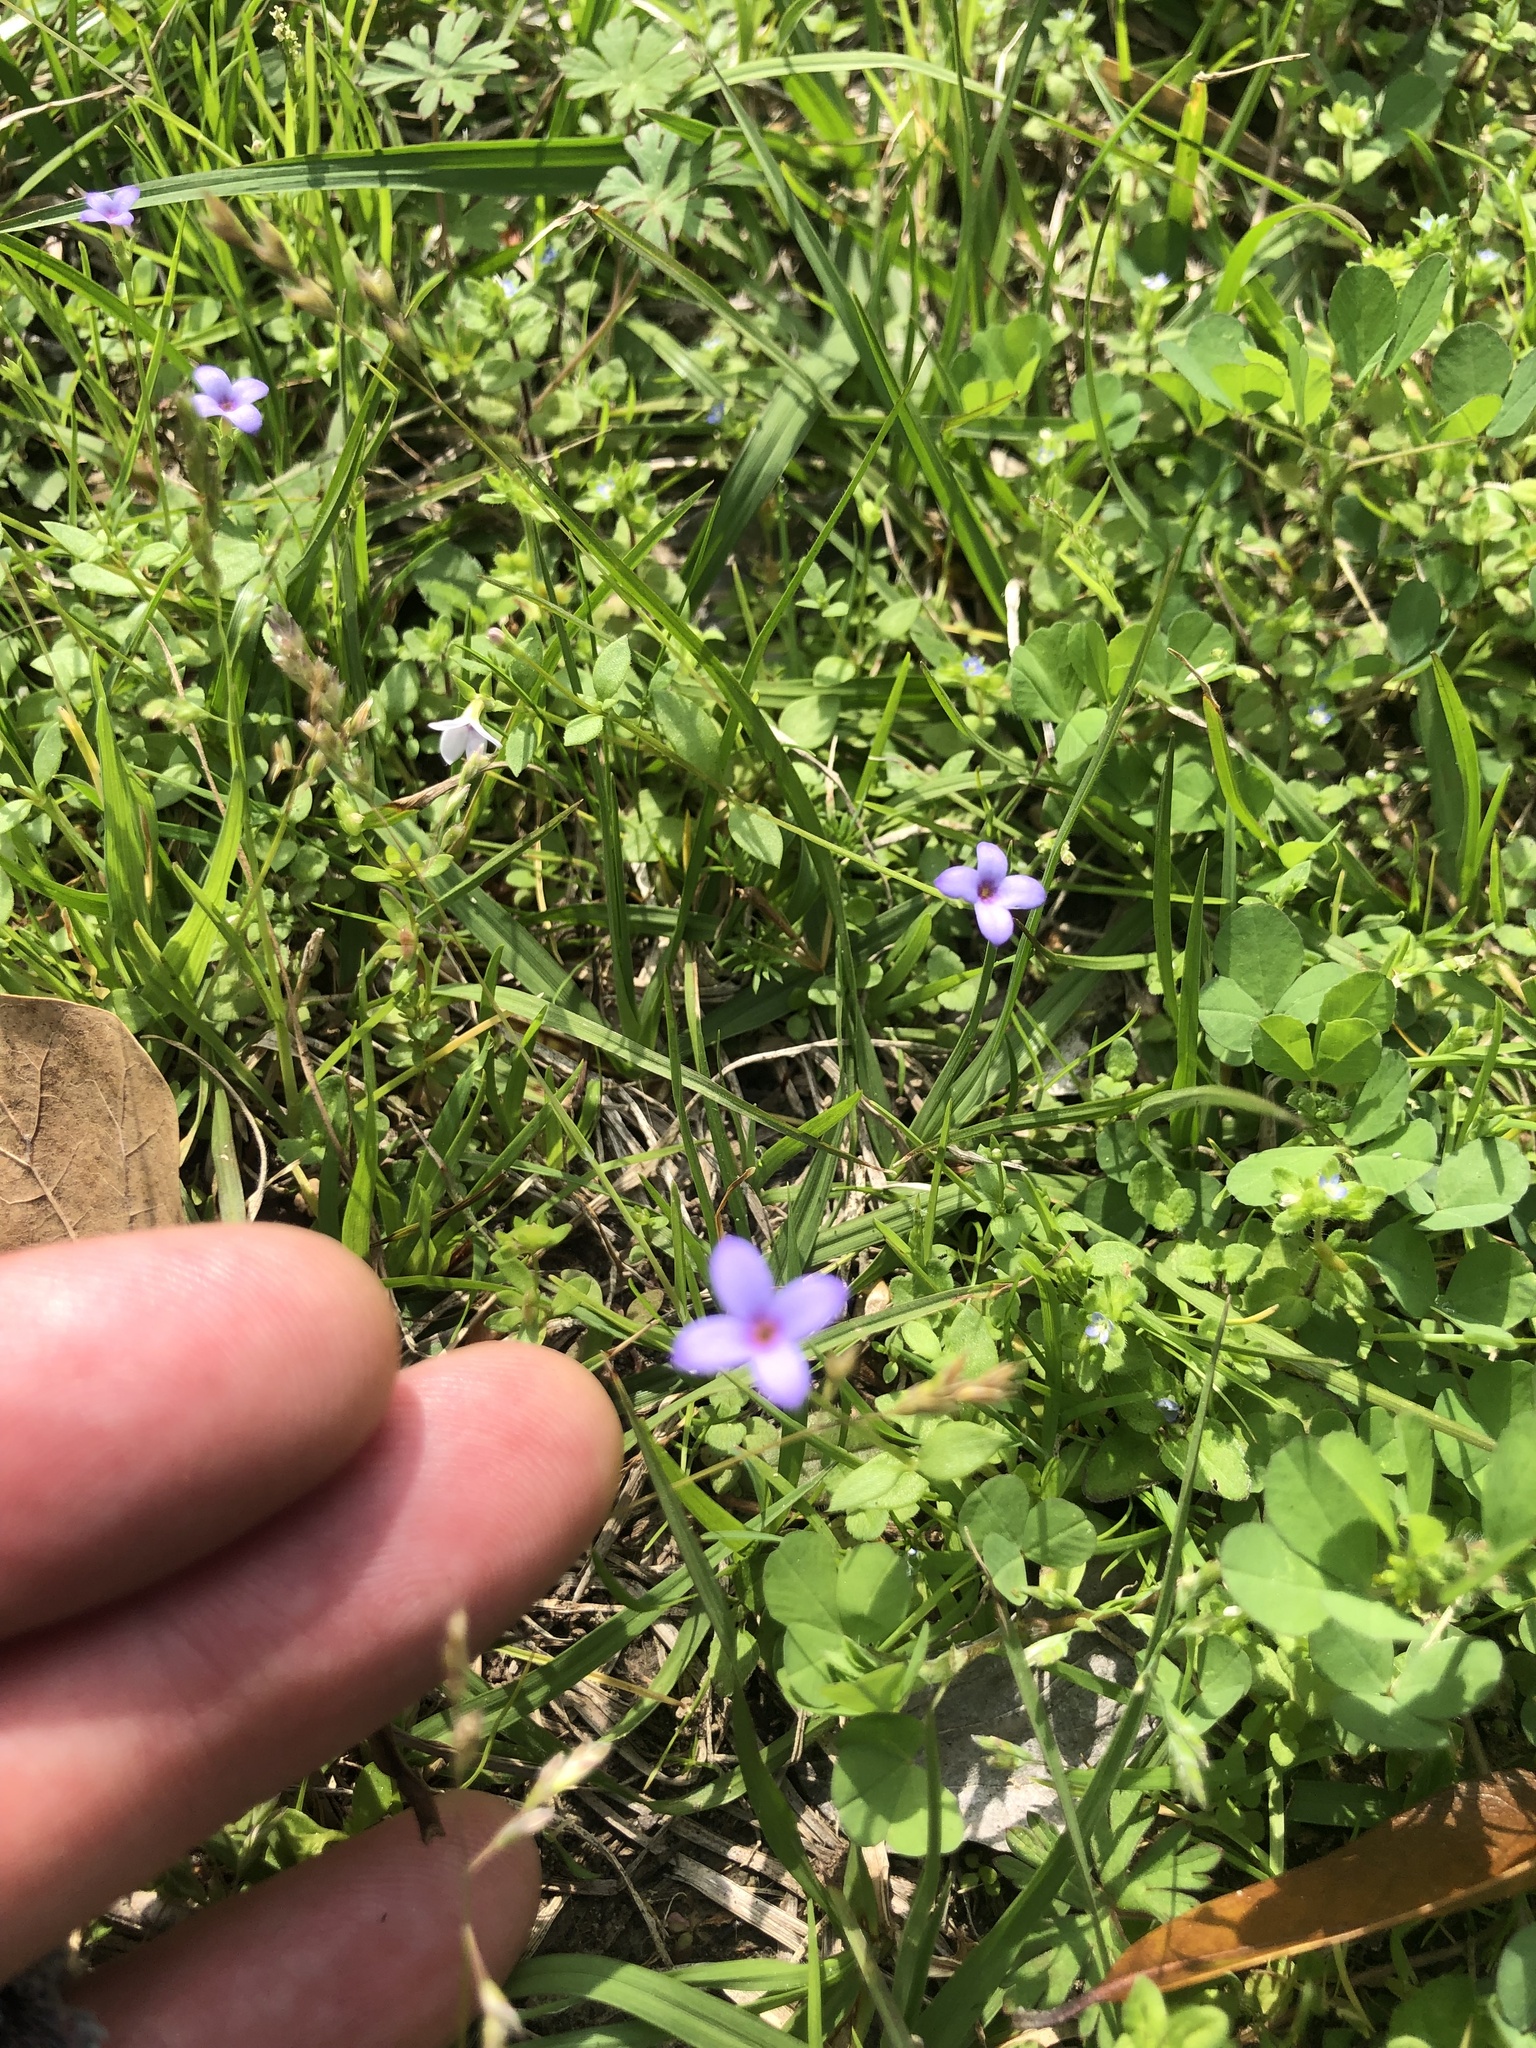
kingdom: Plantae
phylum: Tracheophyta
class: Magnoliopsida
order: Gentianales
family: Rubiaceae
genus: Houstonia
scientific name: Houstonia pusilla
